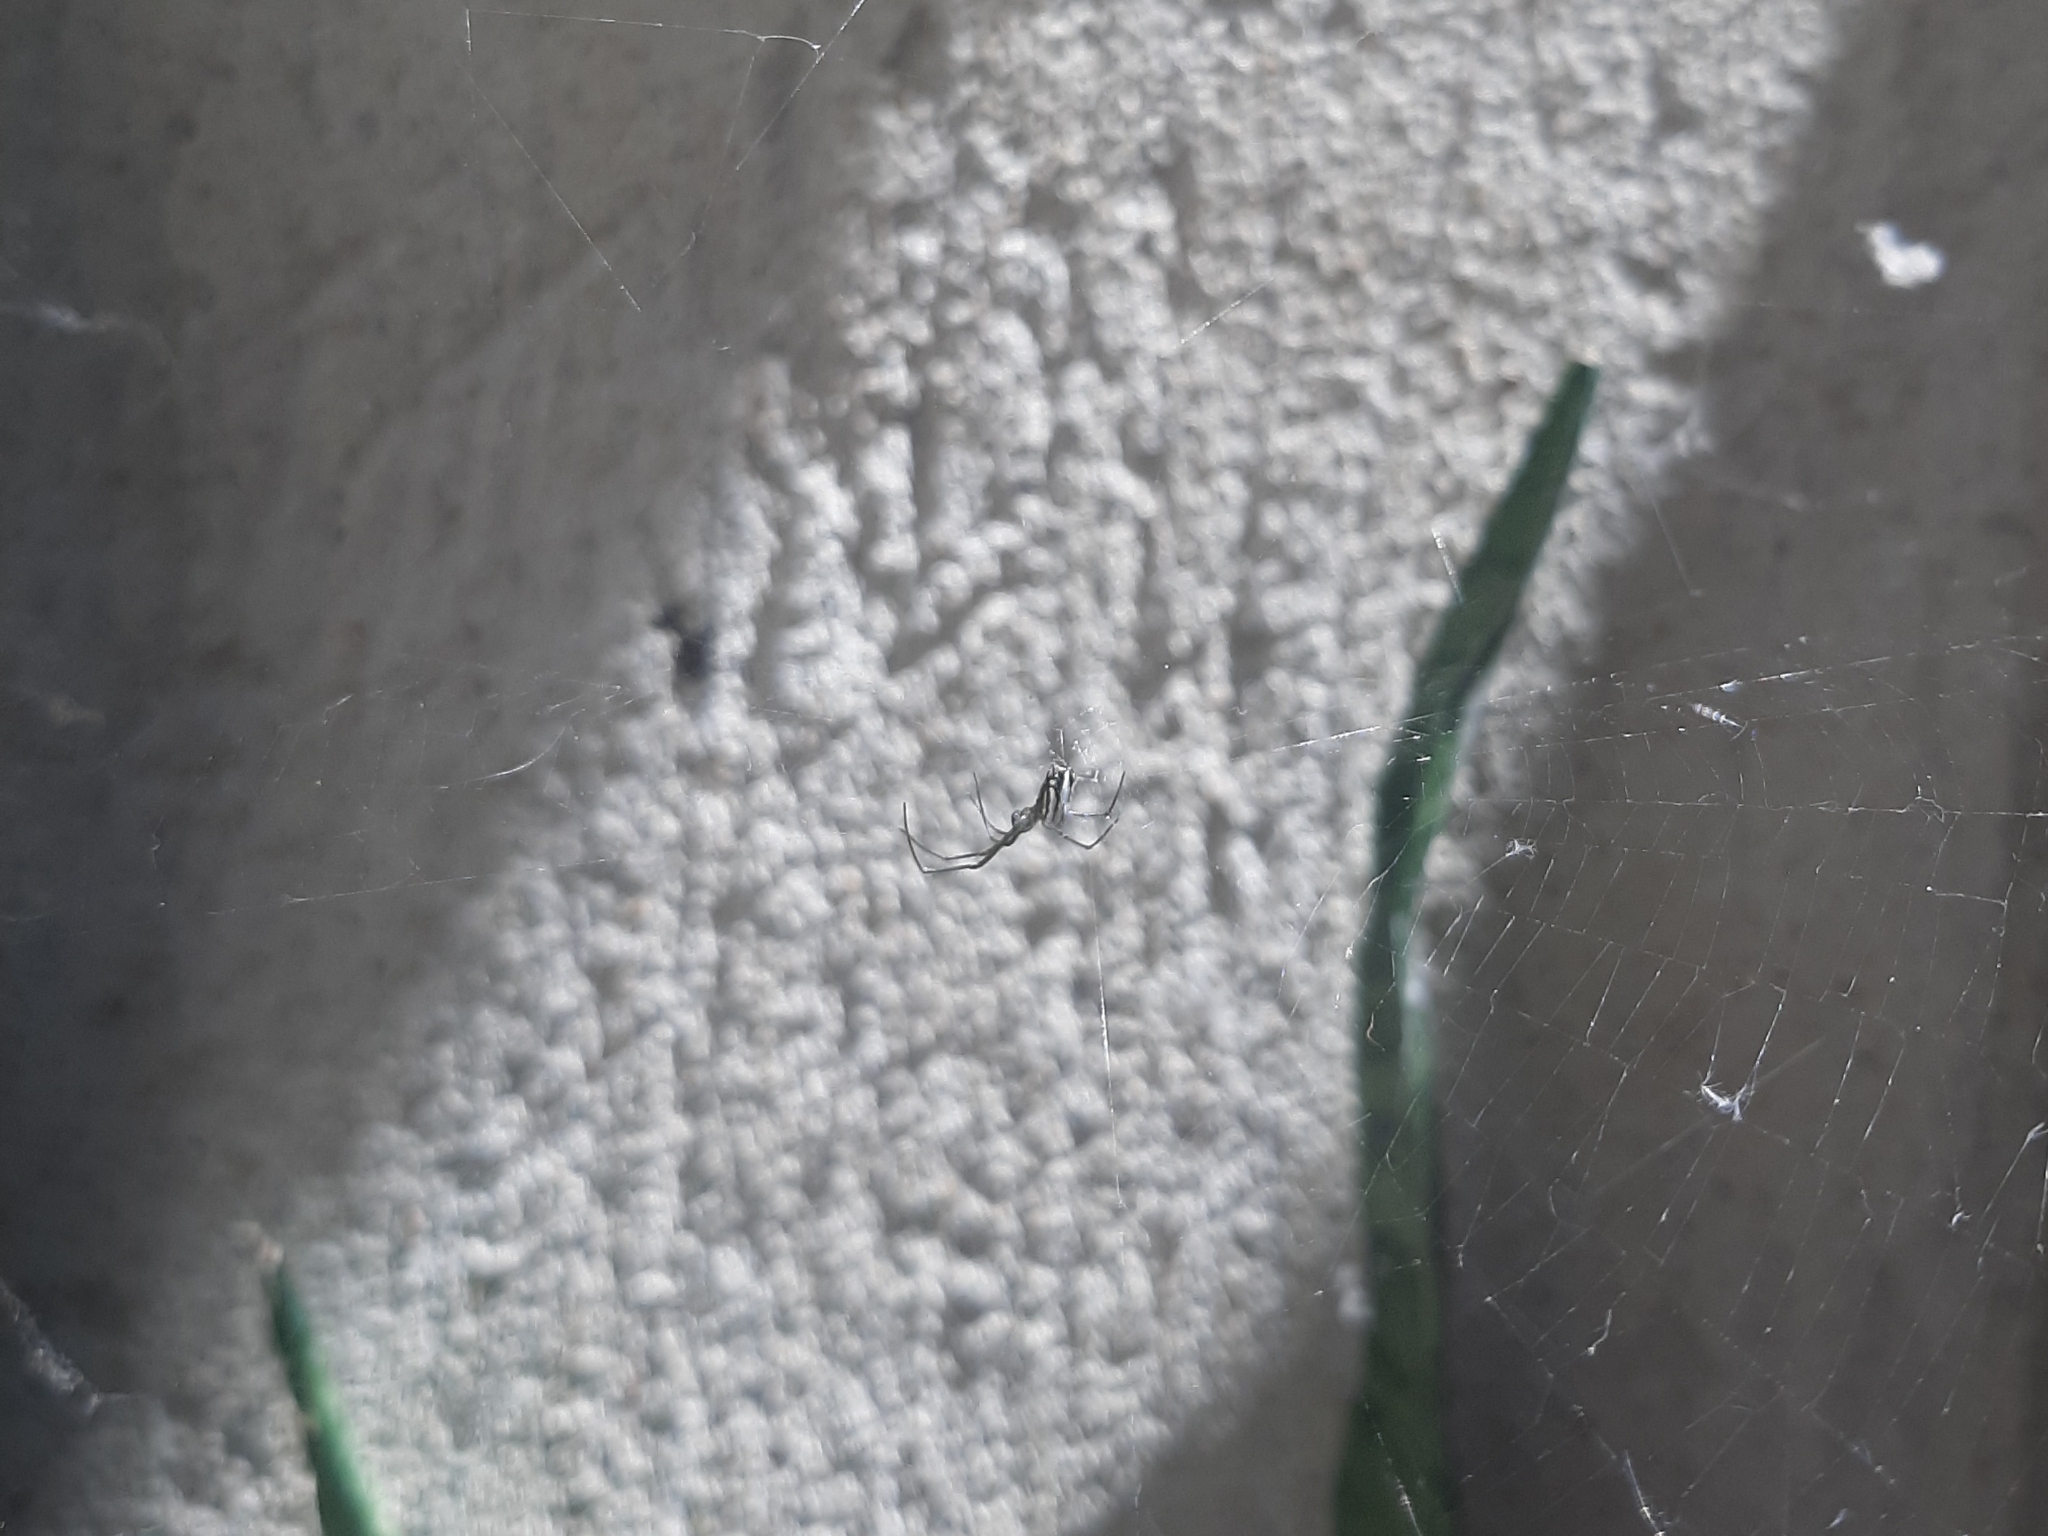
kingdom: Animalia
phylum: Arthropoda
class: Arachnida
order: Araneae
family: Tetragnathidae
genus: Leucauge
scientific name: Leucauge argyra
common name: Longjawed orb weavers
